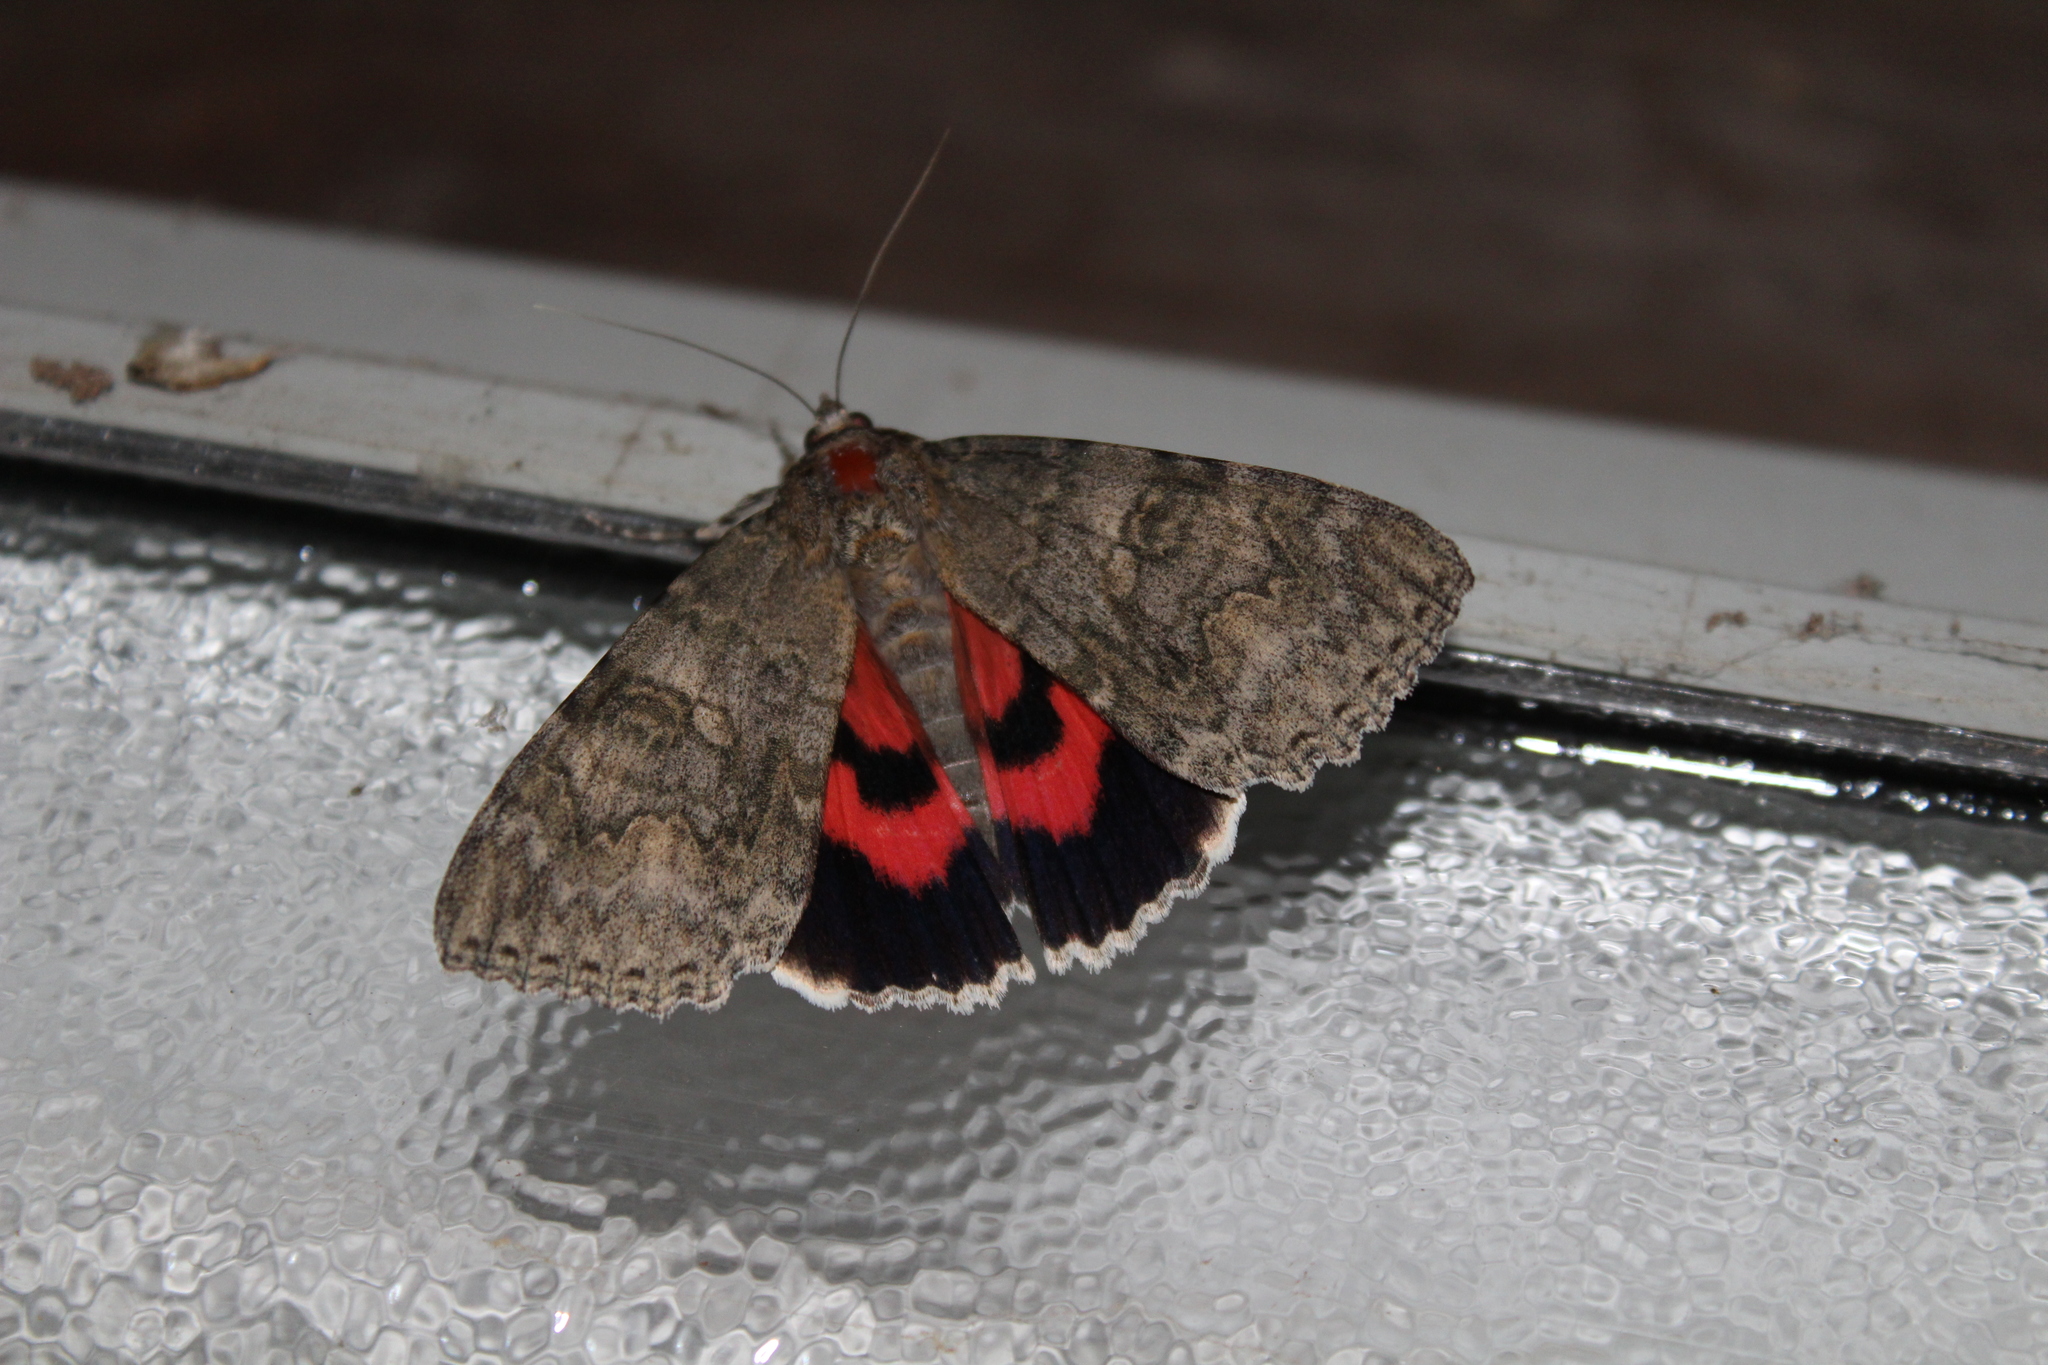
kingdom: Animalia
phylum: Arthropoda
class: Insecta
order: Lepidoptera
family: Erebidae
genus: Catocala
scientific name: Catocala nupta
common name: Red underwing
